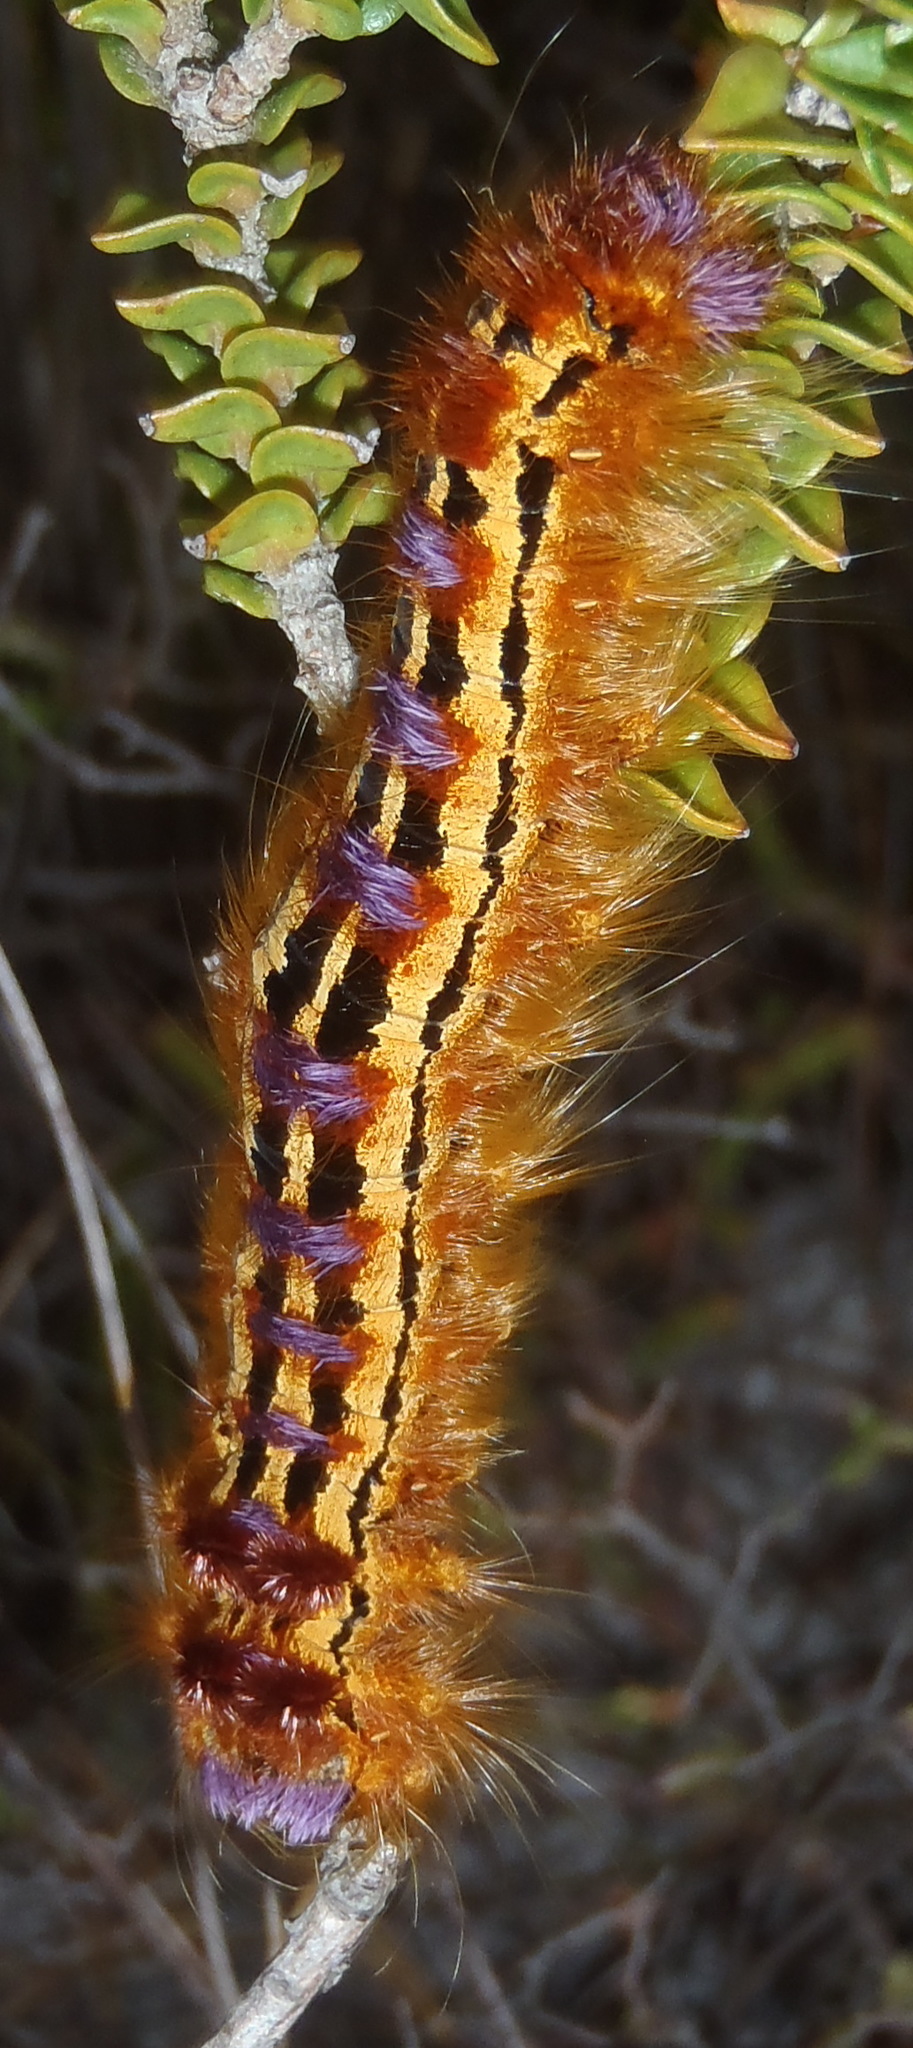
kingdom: Animalia
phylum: Arthropoda
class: Insecta
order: Lepidoptera
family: Lasiocampidae
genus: Eutricha
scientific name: Eutricha bifascia
